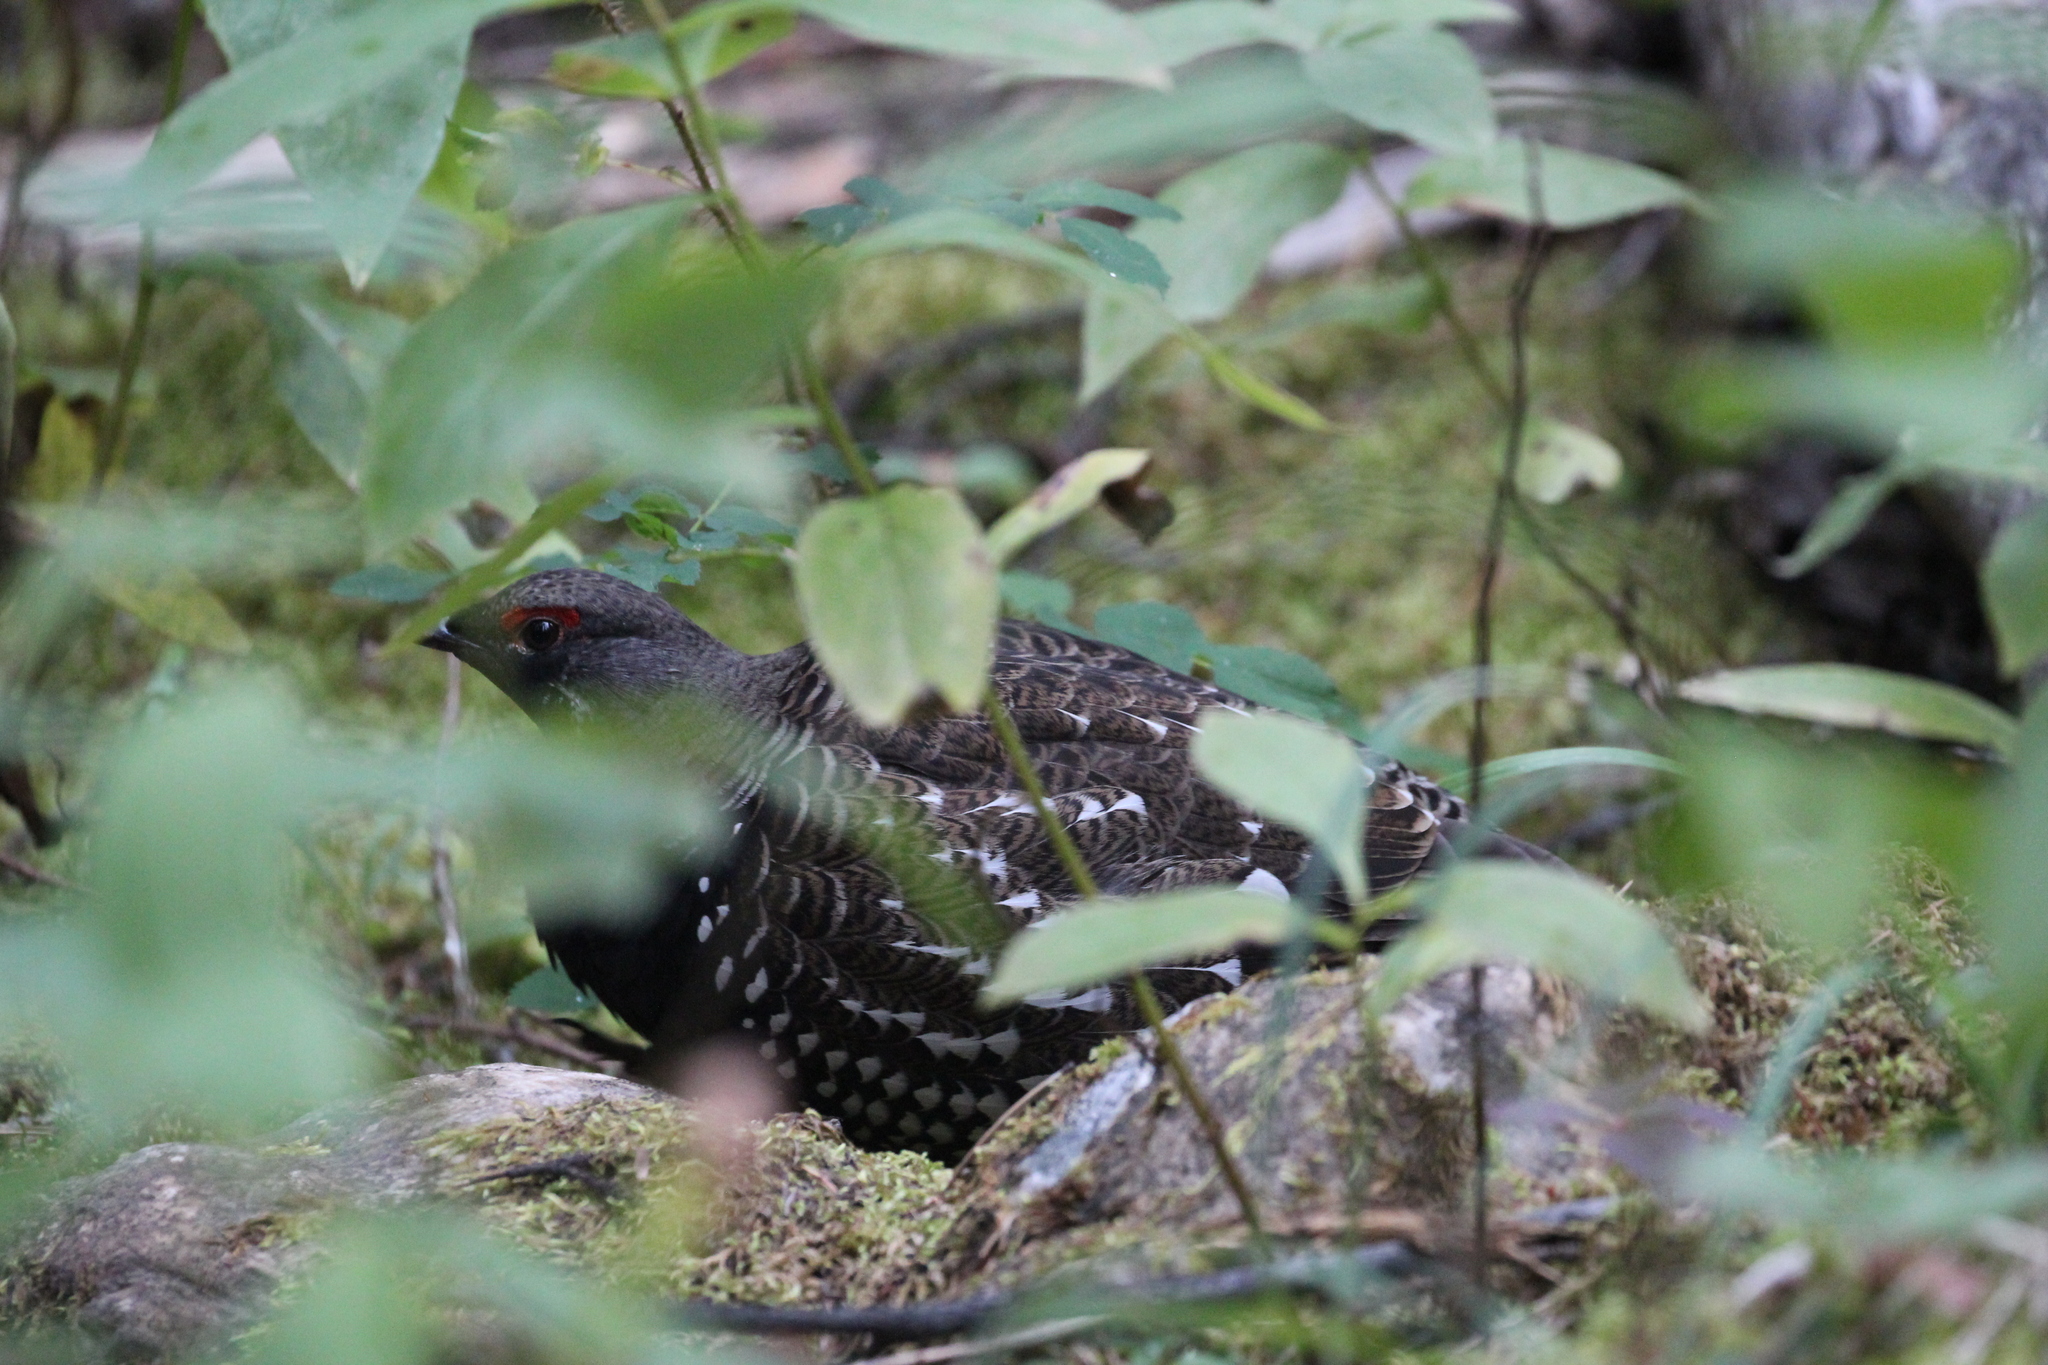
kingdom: Animalia
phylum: Chordata
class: Aves
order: Galliformes
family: Phasianidae
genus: Canachites
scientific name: Canachites canadensis
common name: Spruce grouse
